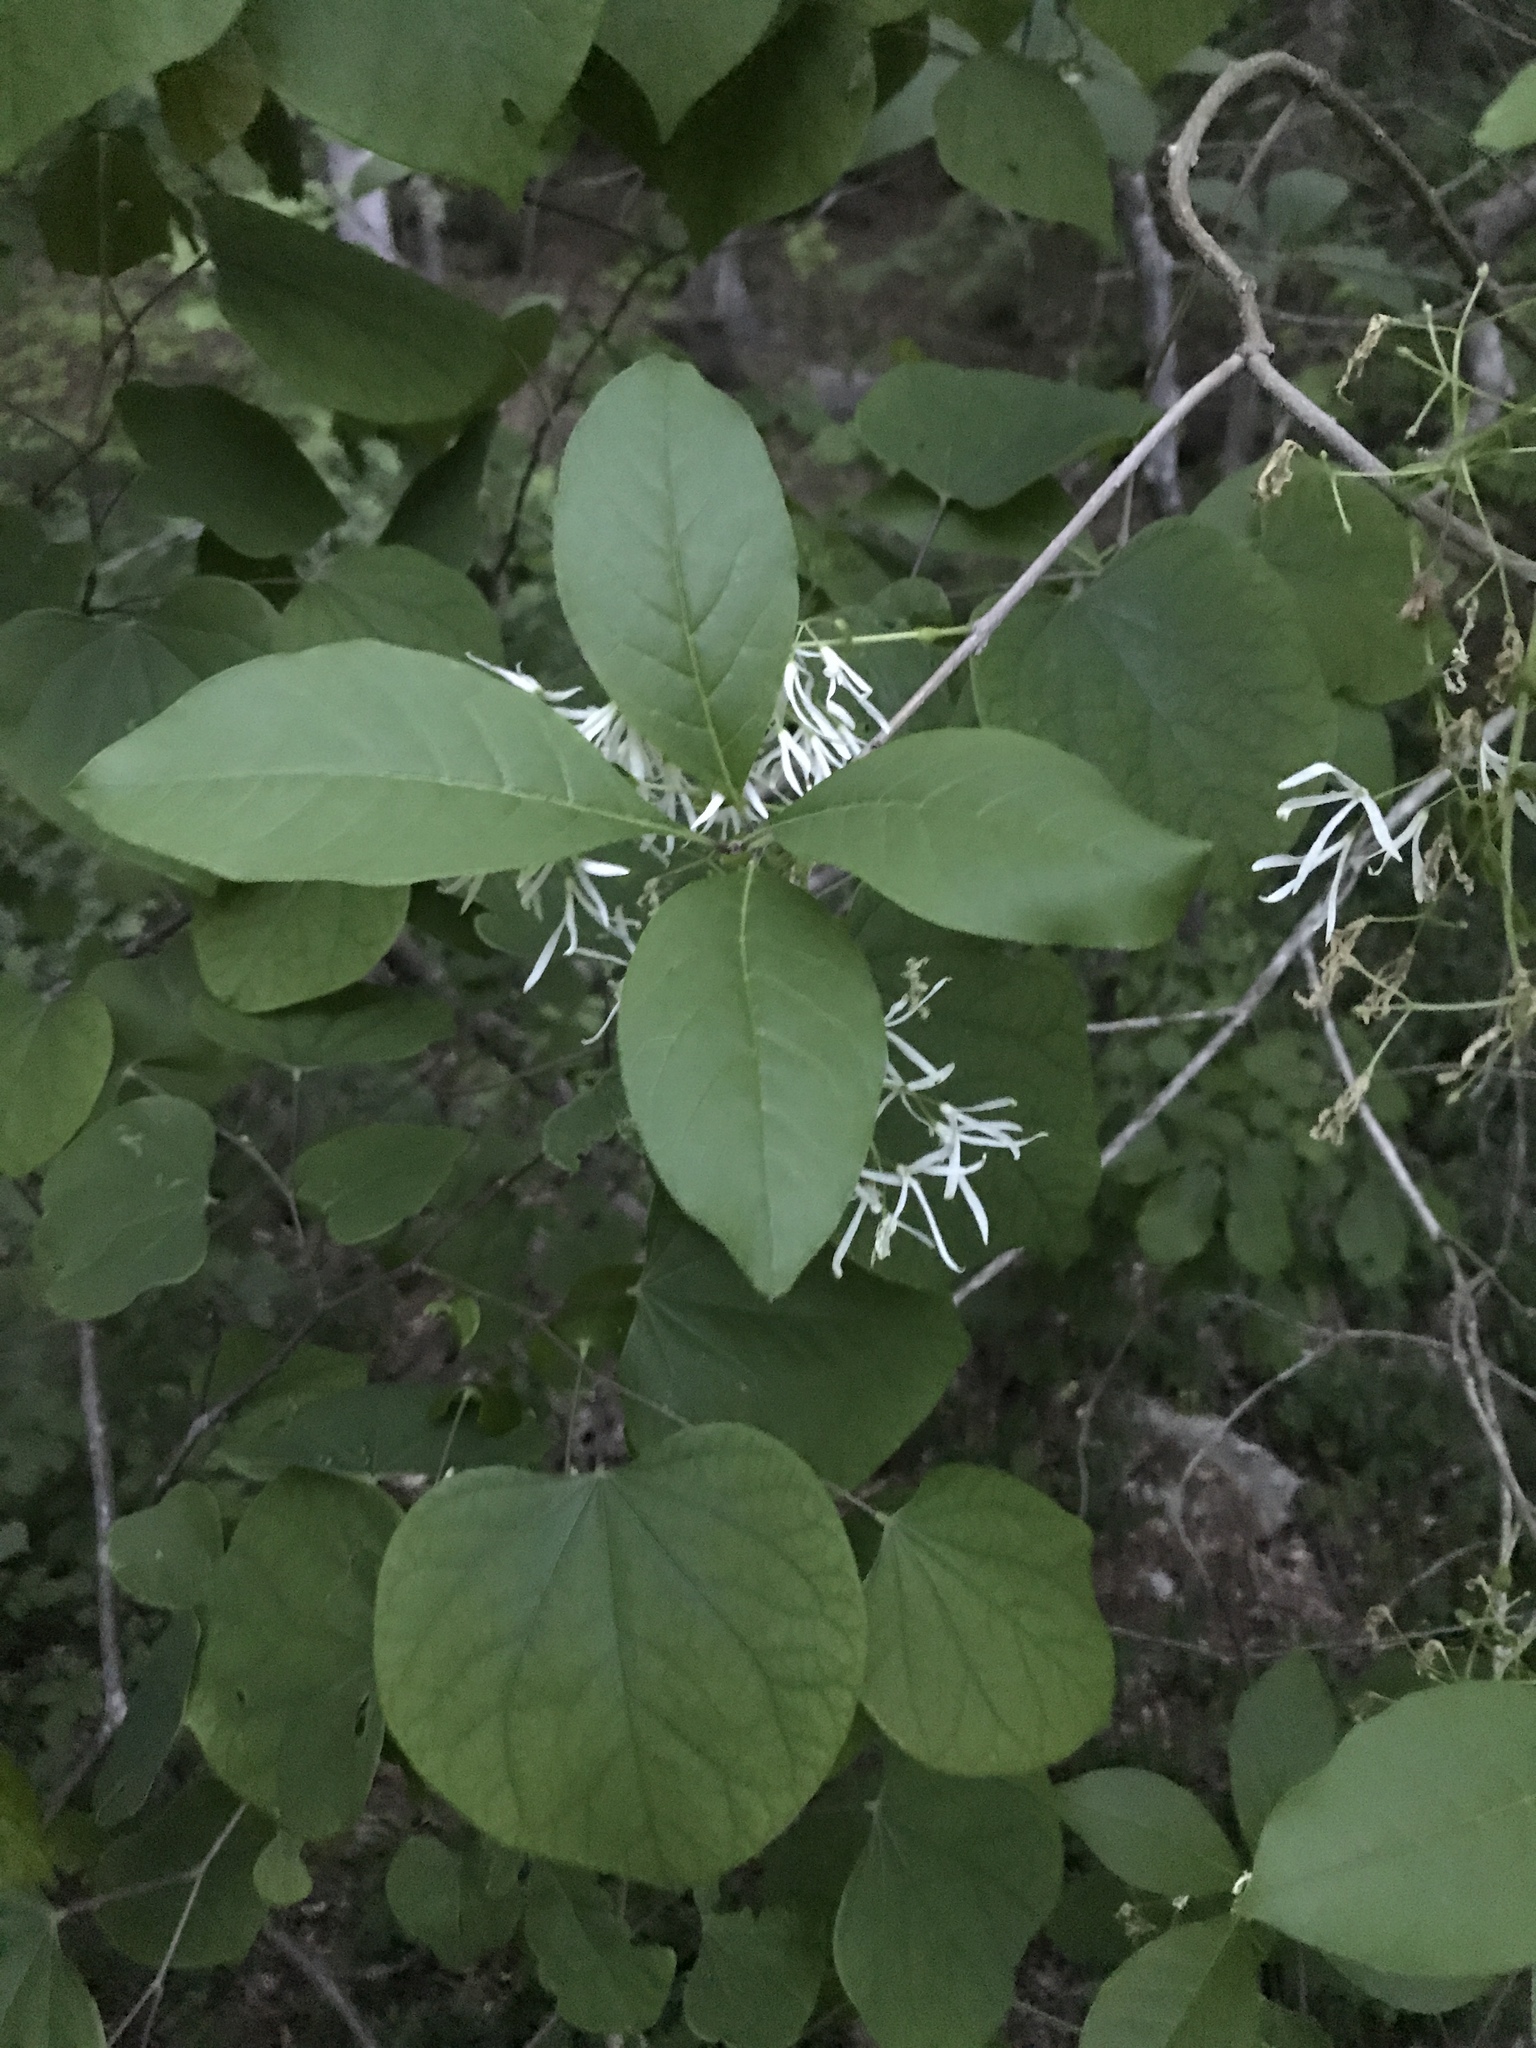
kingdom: Plantae
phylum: Tracheophyta
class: Magnoliopsida
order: Lamiales
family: Oleaceae
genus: Chionanthus
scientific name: Chionanthus virginicus
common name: American fringetree
